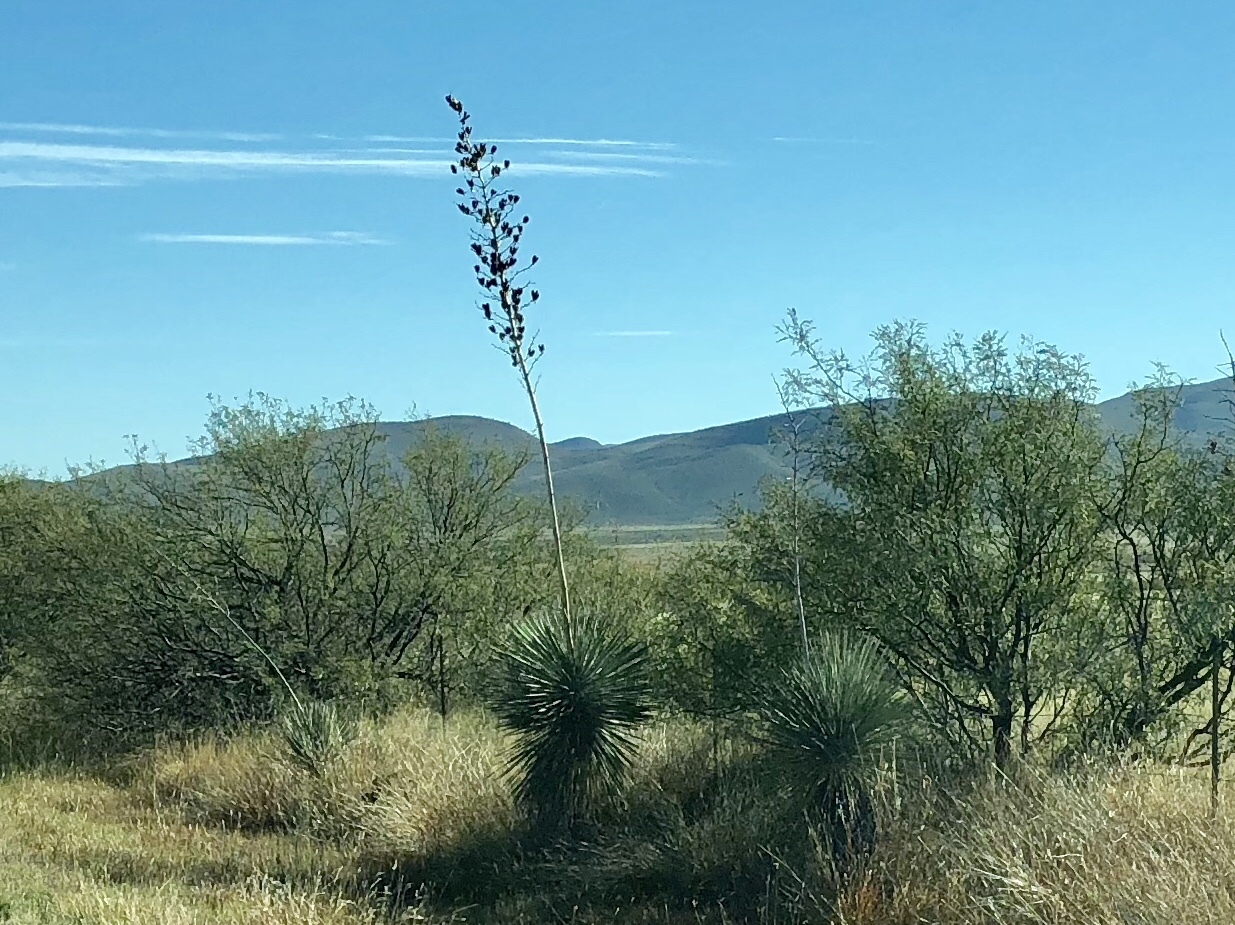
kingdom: Plantae
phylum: Tracheophyta
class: Liliopsida
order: Asparagales
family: Asparagaceae
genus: Yucca
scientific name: Yucca elata
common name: Palmella
